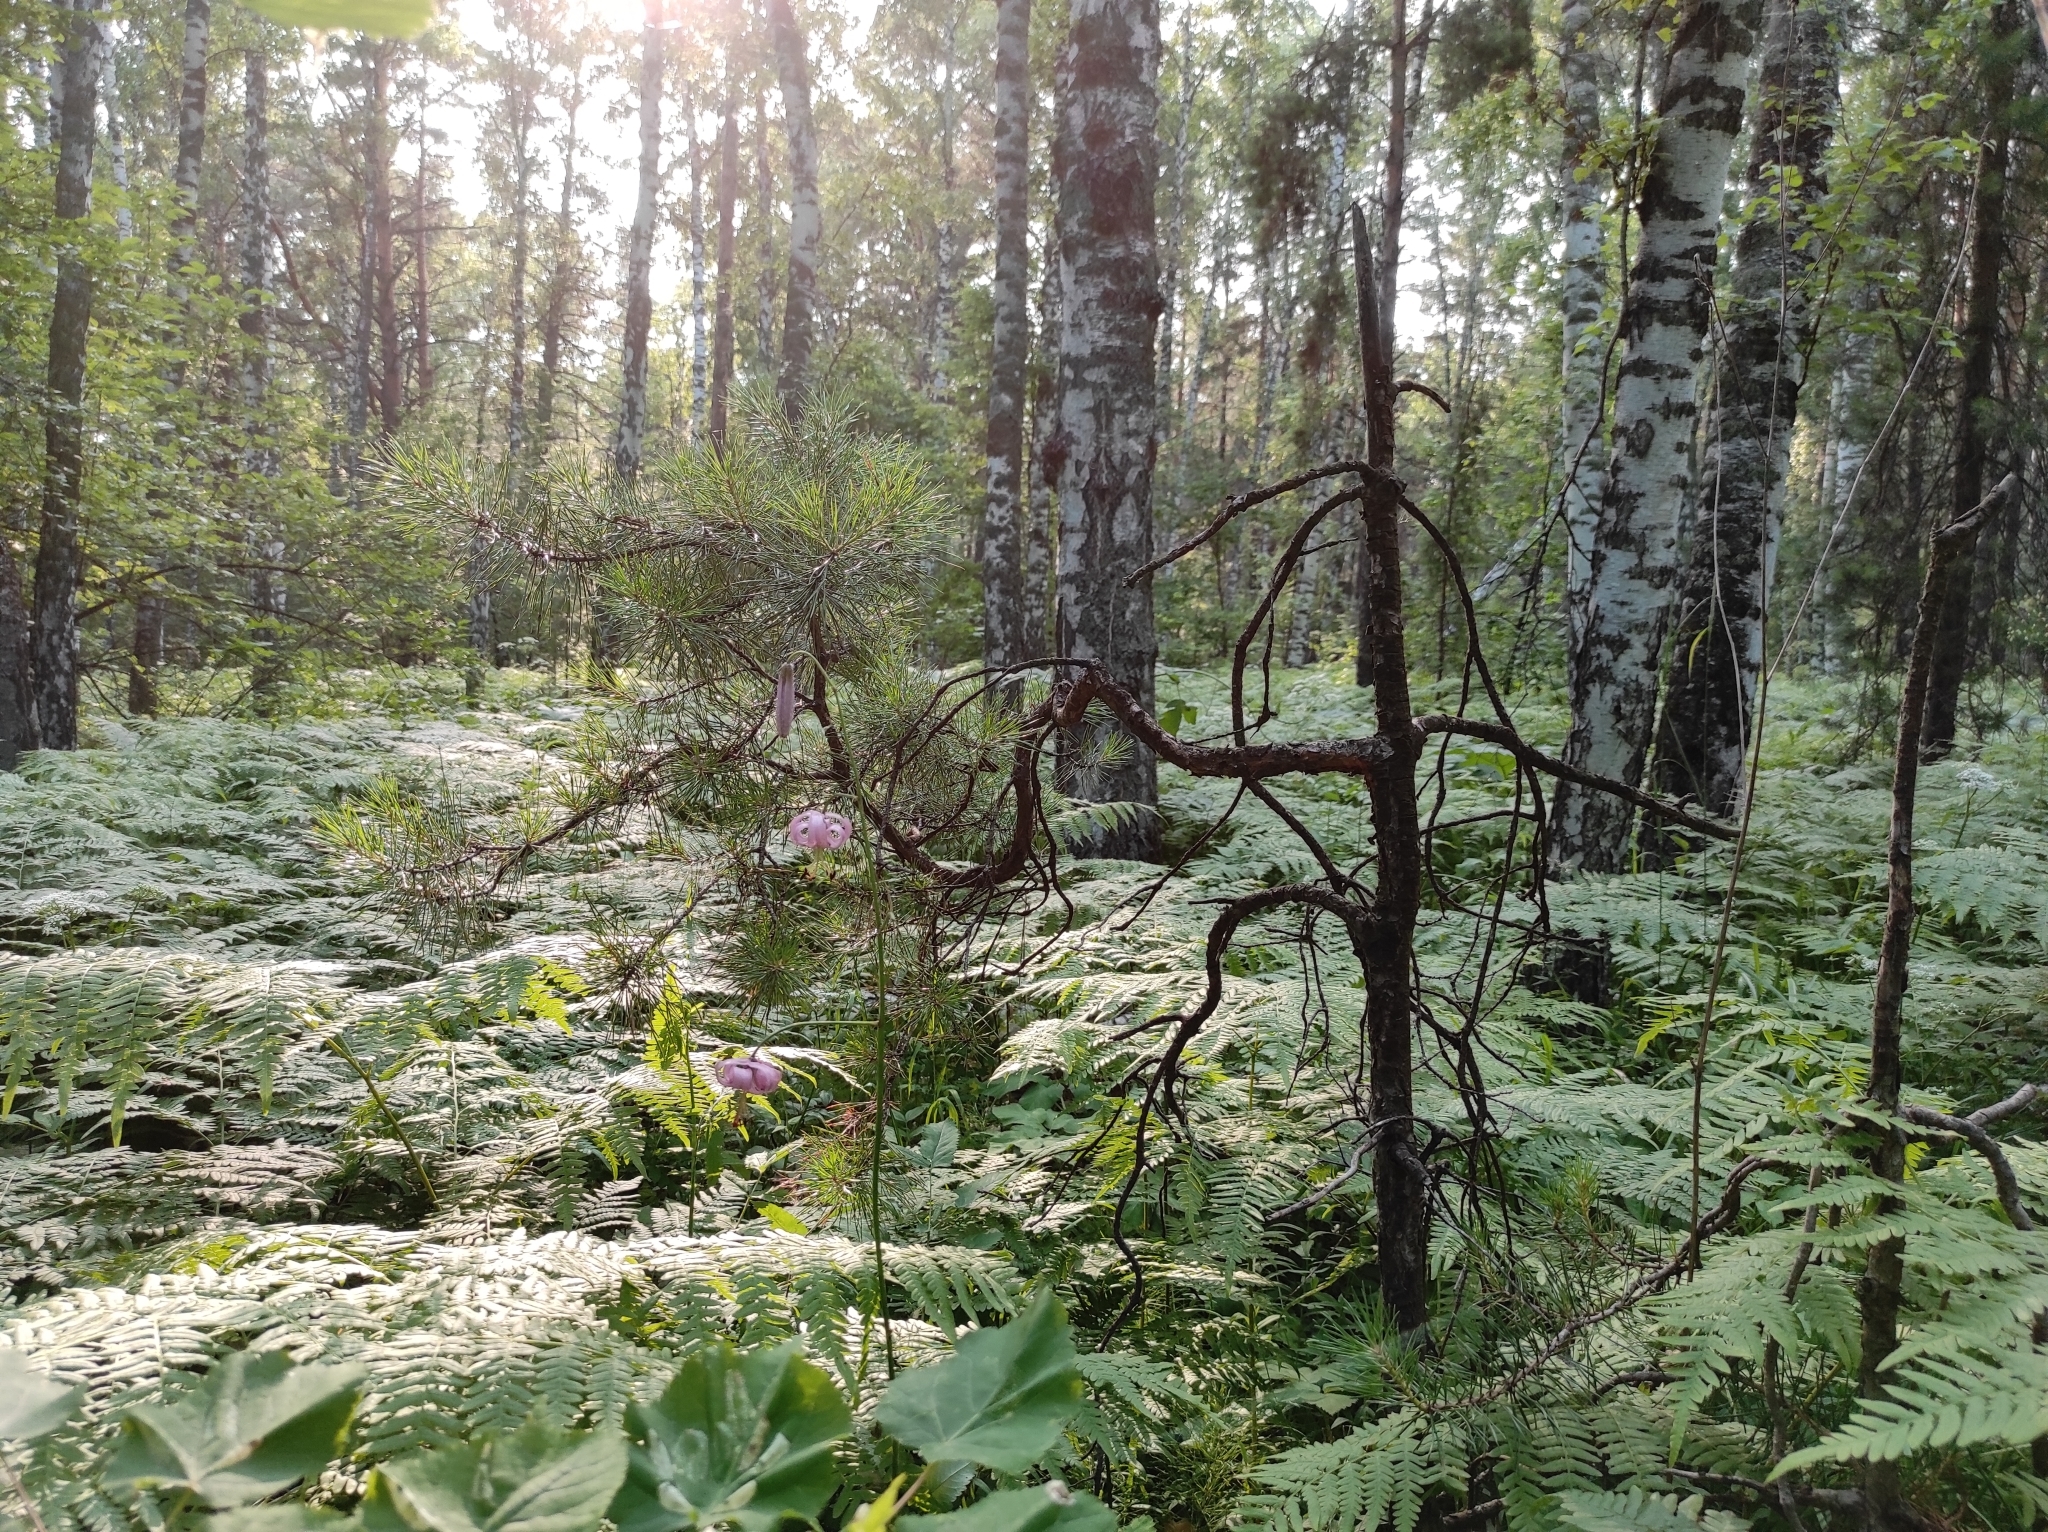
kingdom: Plantae
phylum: Tracheophyta
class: Liliopsida
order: Liliales
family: Liliaceae
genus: Lilium
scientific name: Lilium martagon
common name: Martagon lily
